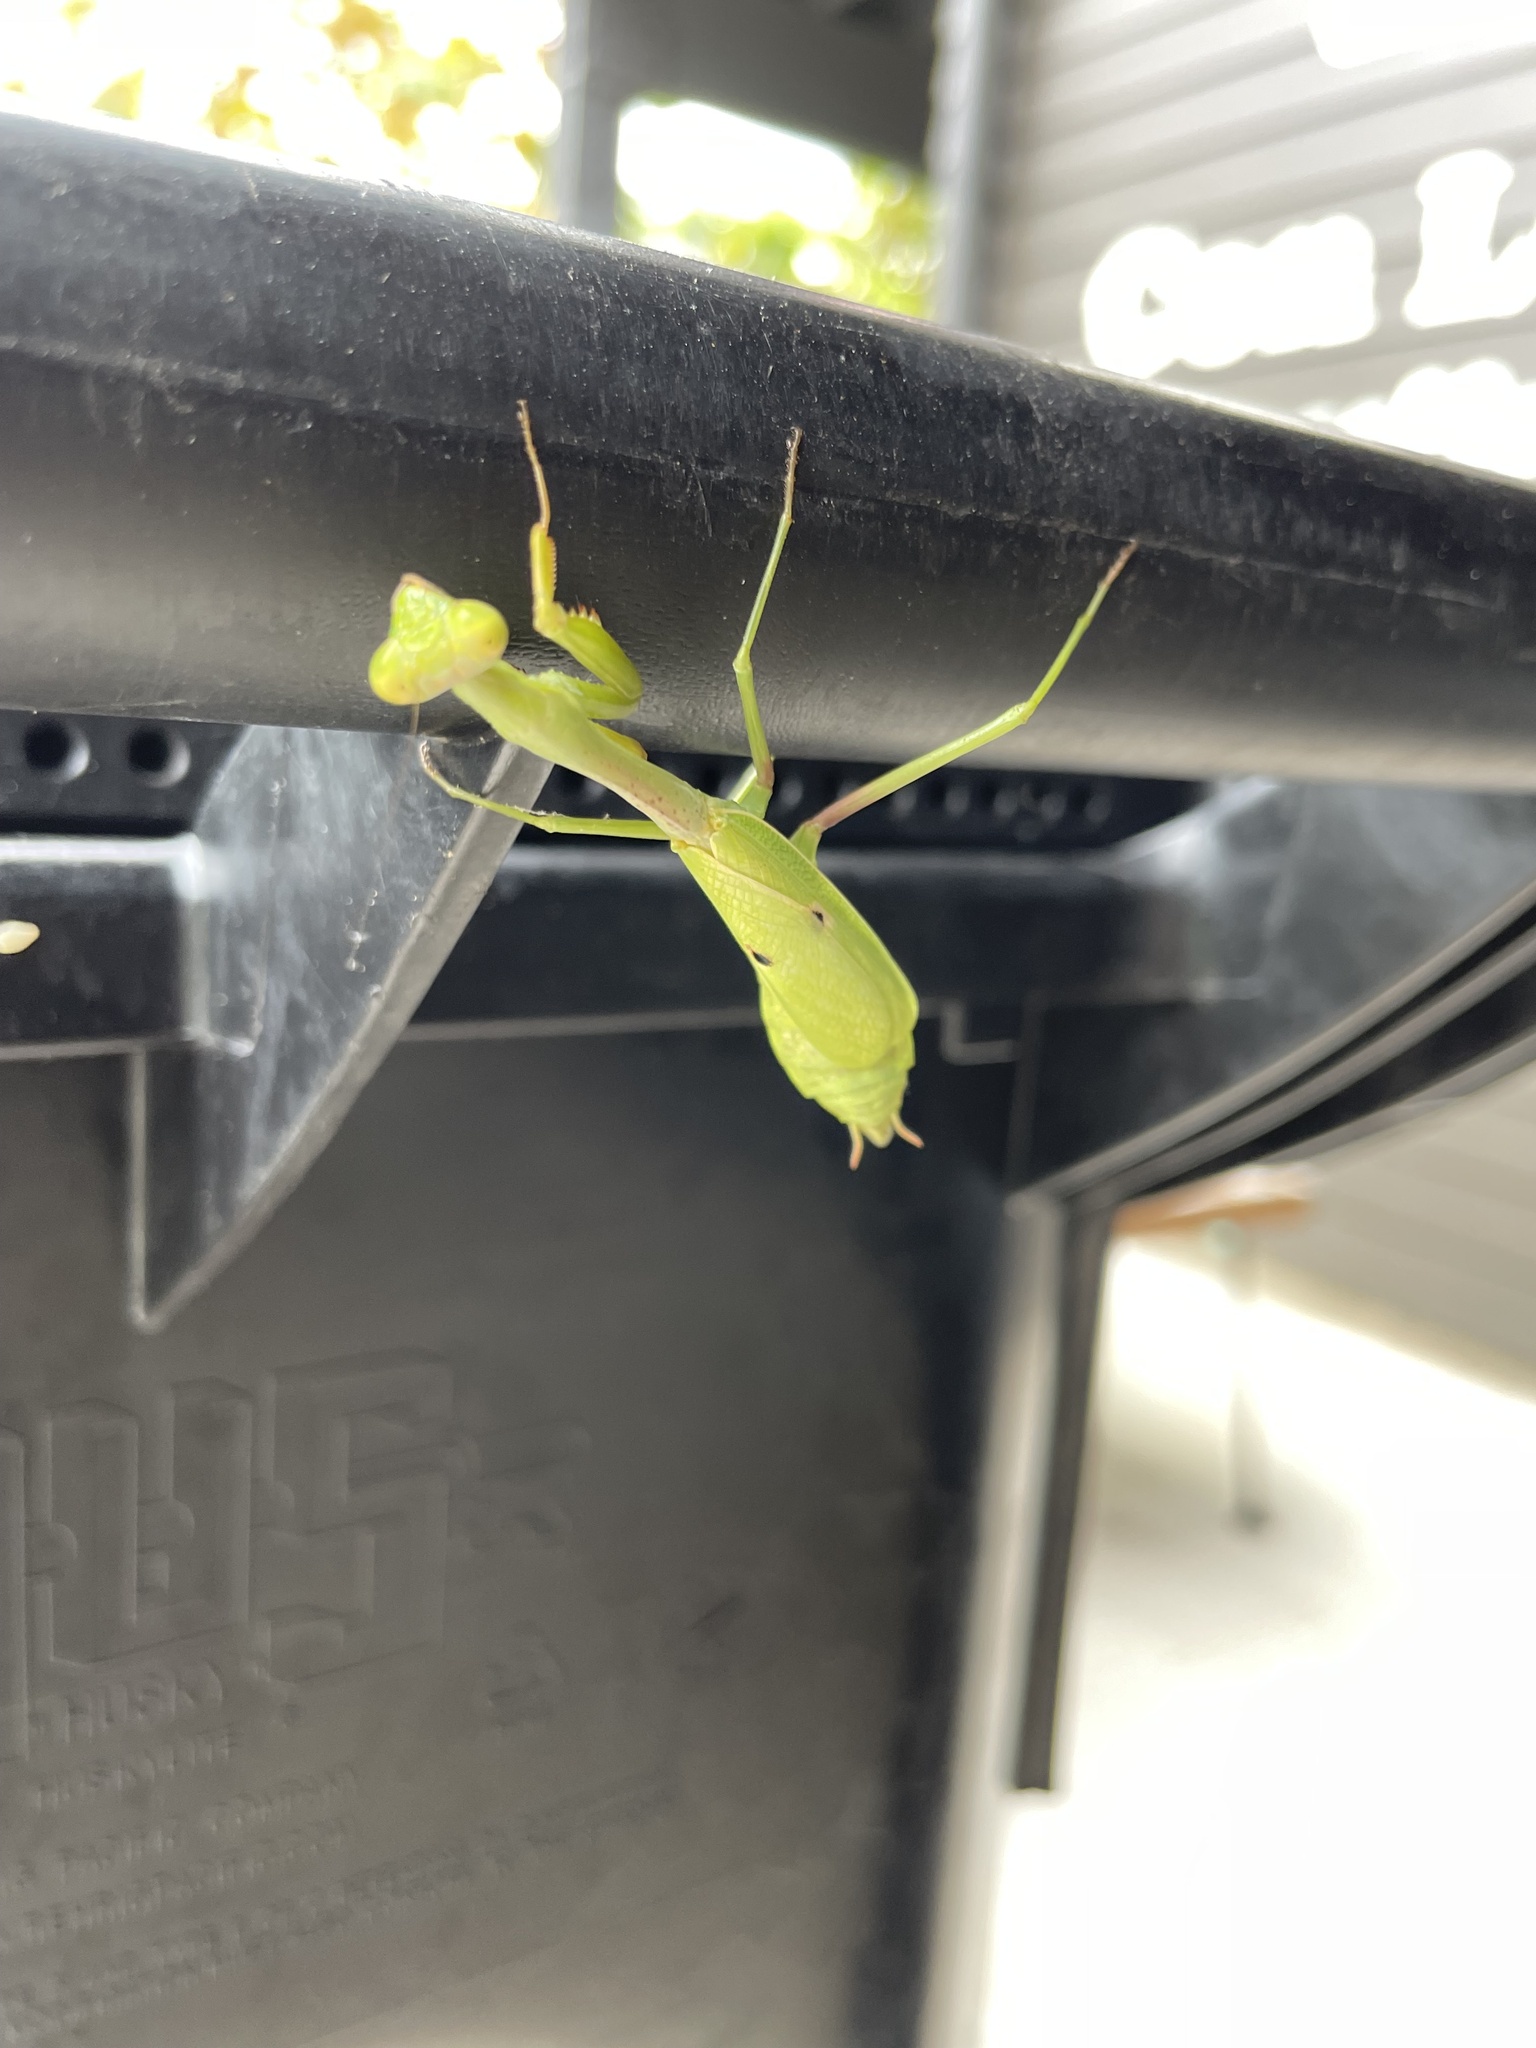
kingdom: Animalia
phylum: Arthropoda
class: Insecta
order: Mantodea
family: Mantidae
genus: Stagmomantis
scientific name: Stagmomantis carolina
